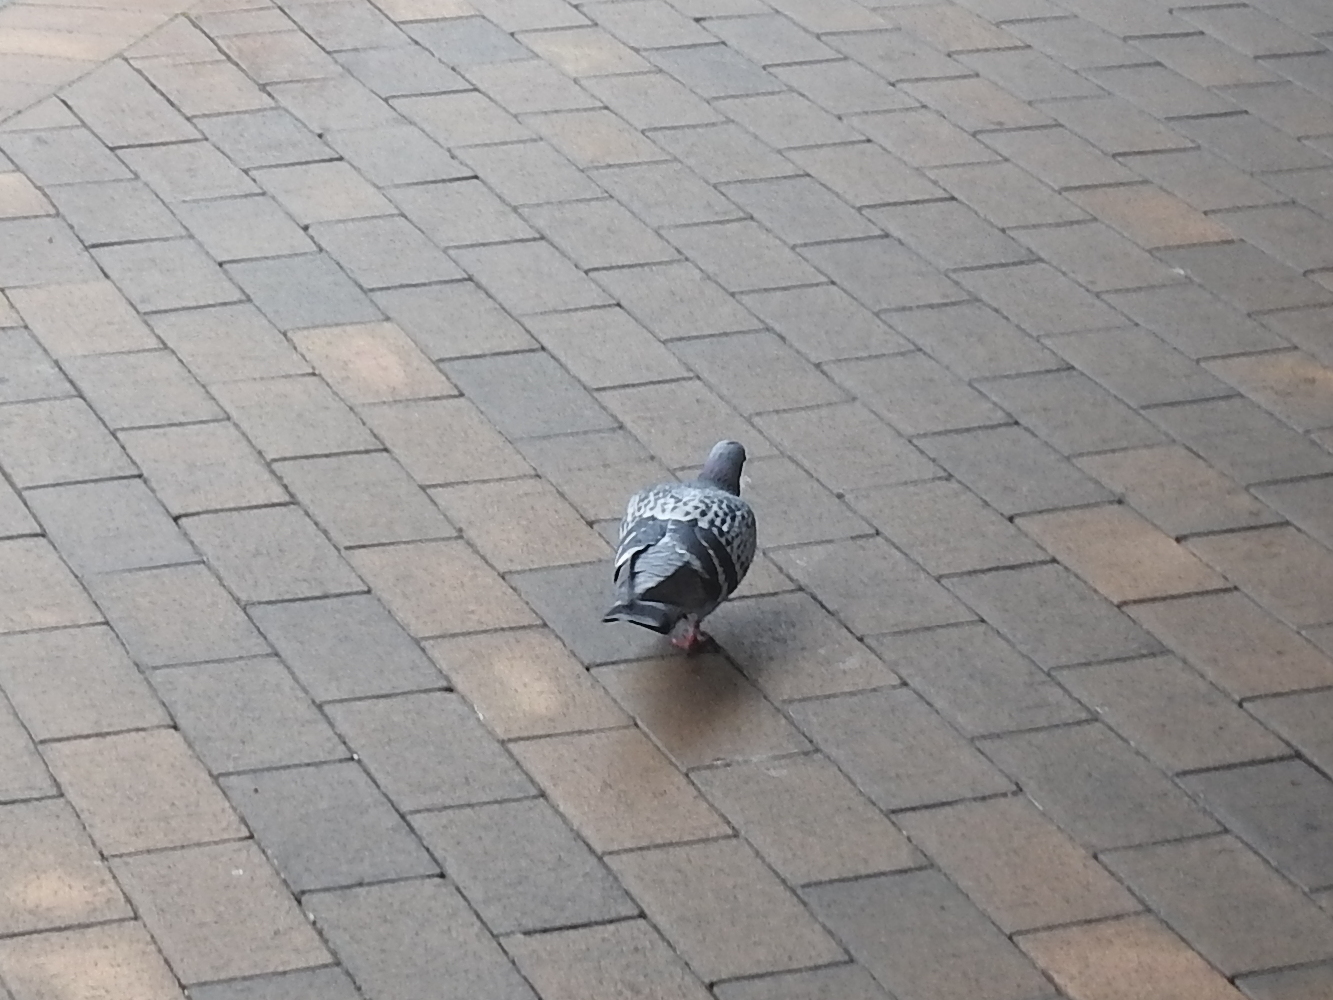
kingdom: Animalia
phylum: Chordata
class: Aves
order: Columbiformes
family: Columbidae
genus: Columba
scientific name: Columba livia
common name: Rock pigeon
